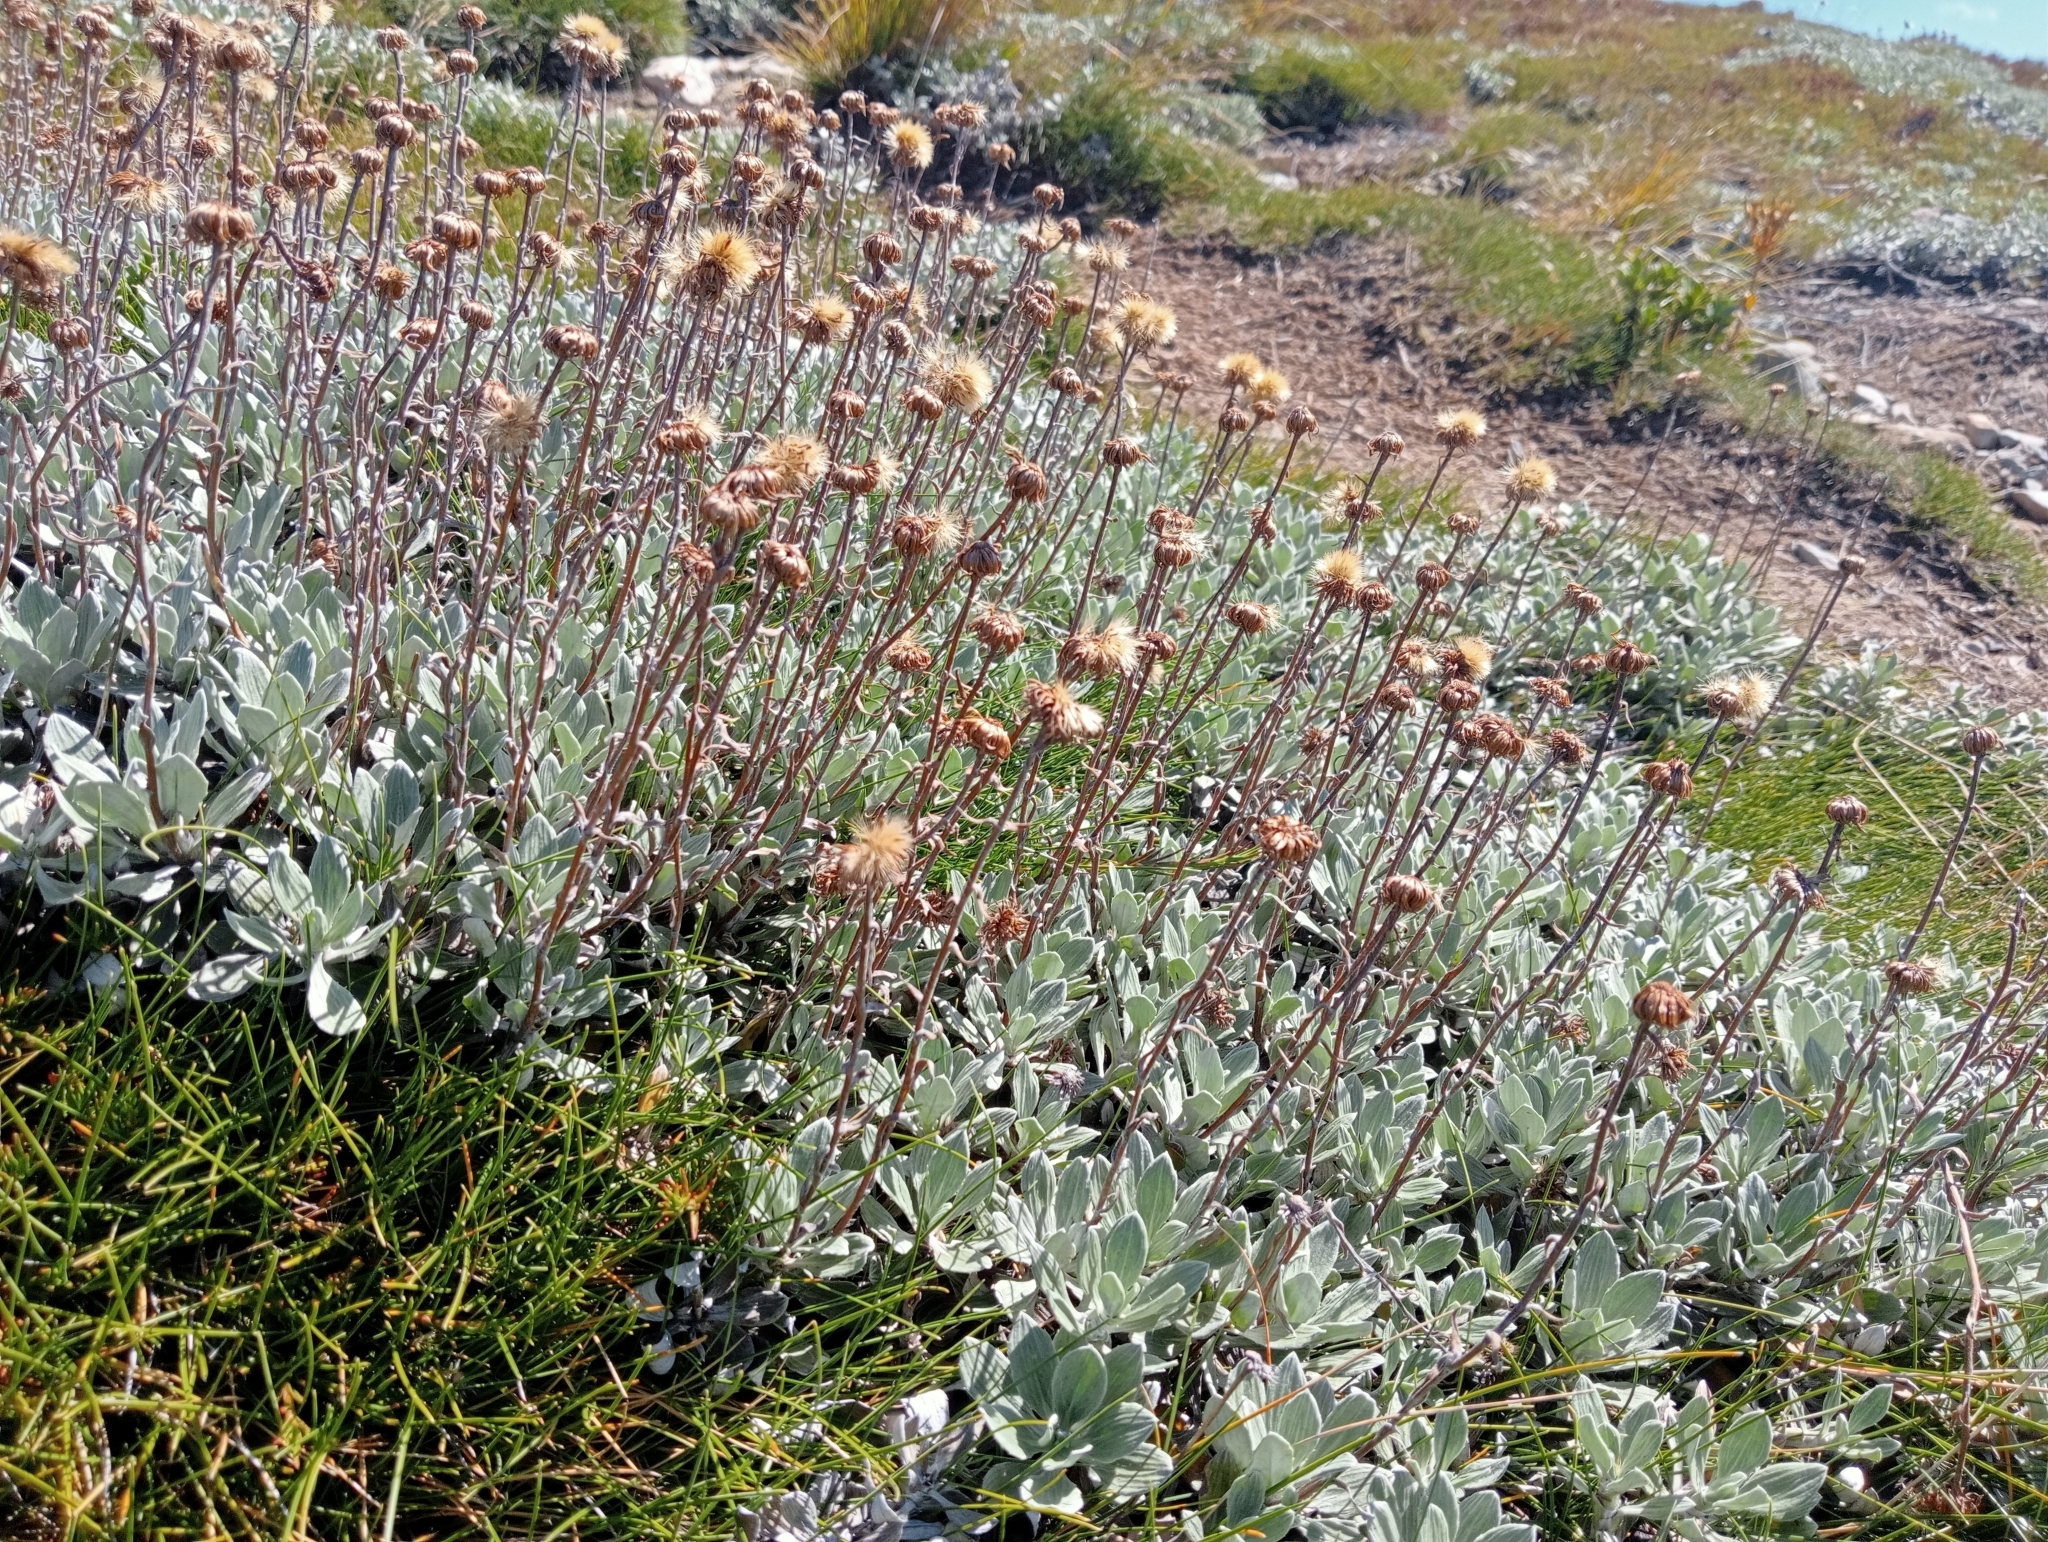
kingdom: Plantae
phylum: Tracheophyta
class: Magnoliopsida
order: Asterales
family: Asteraceae
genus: Celmisia
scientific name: Celmisia discolor
